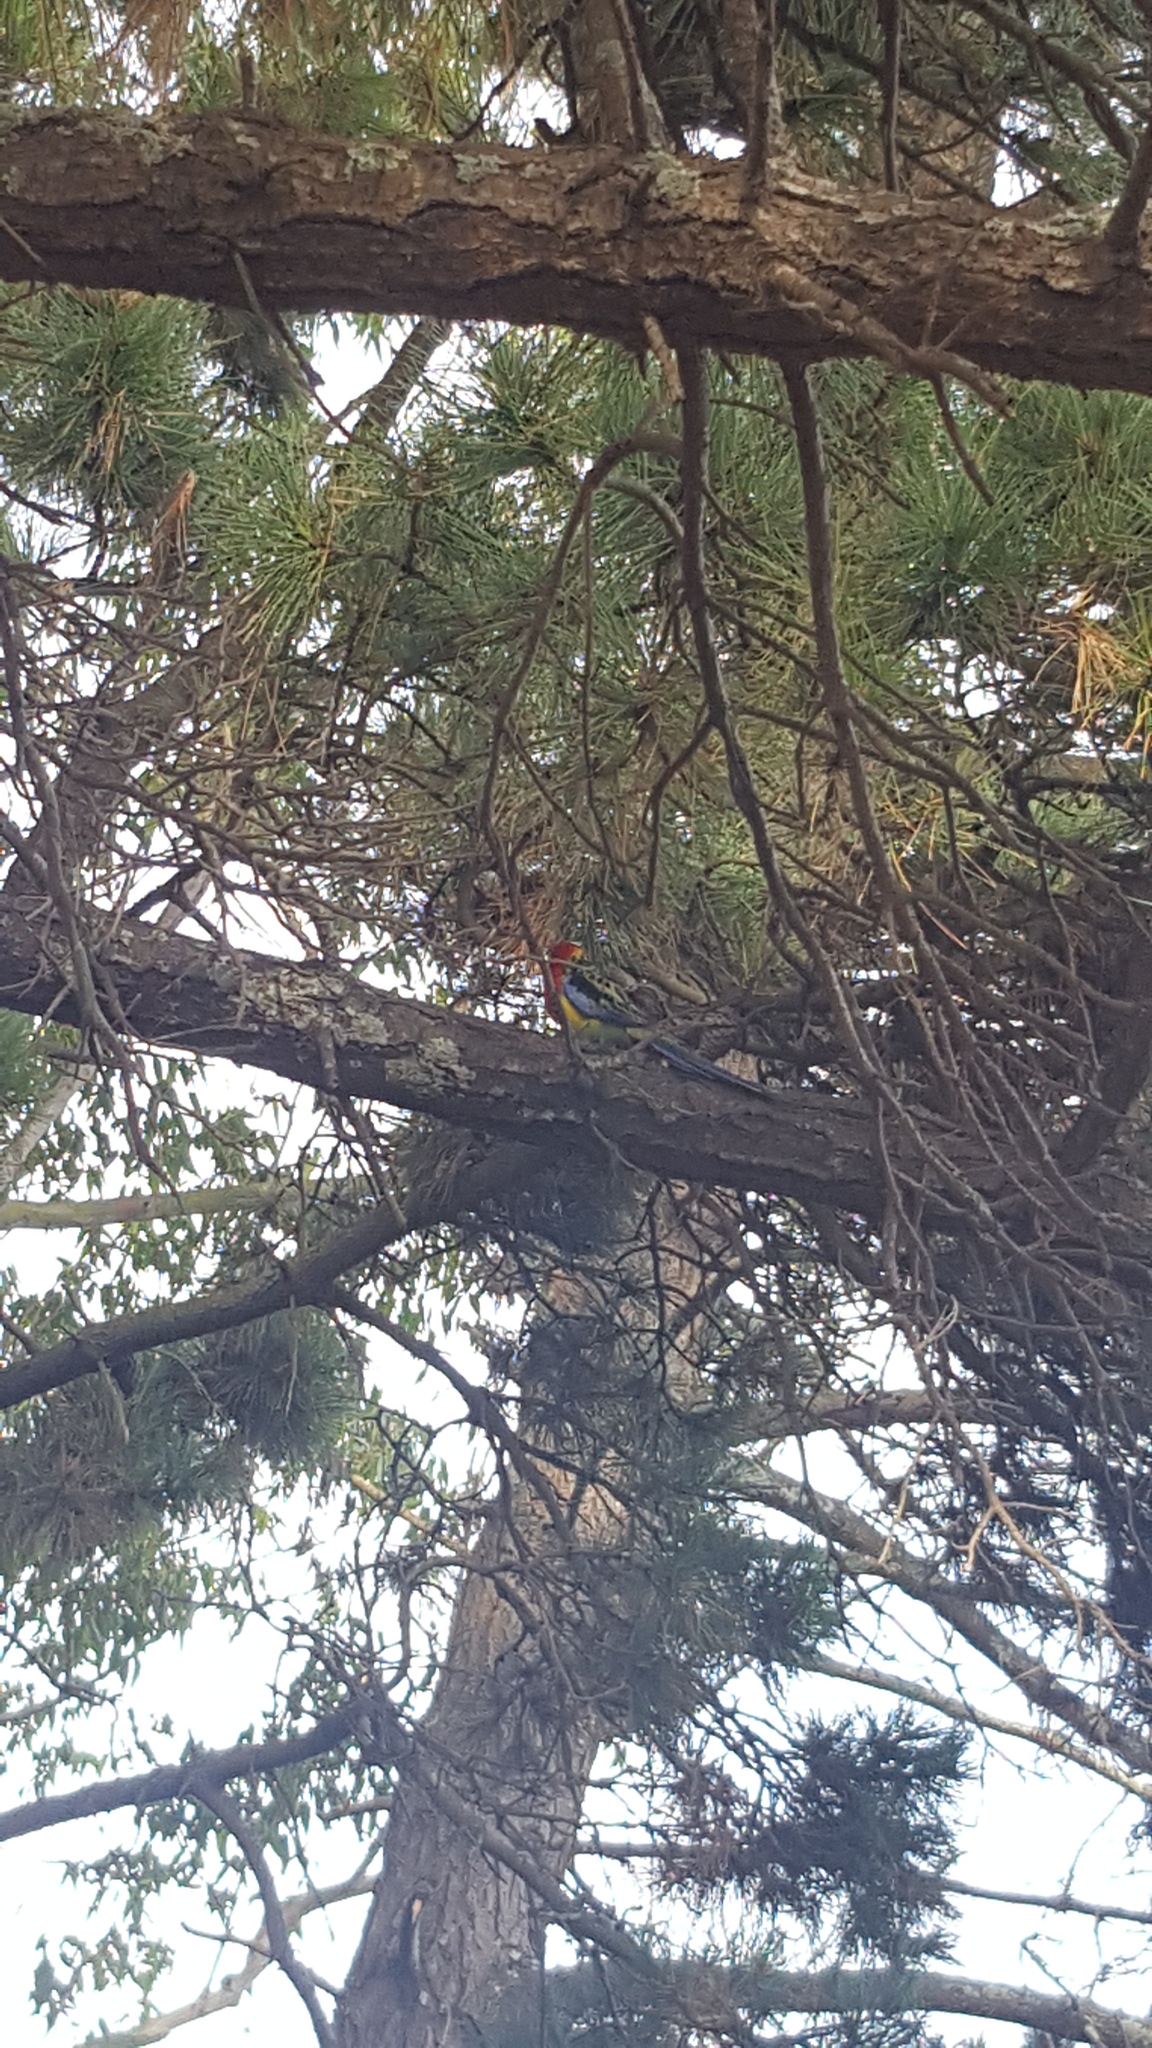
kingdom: Animalia
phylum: Chordata
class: Aves
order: Psittaciformes
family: Psittacidae
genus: Platycercus
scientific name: Platycercus eximius
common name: Eastern rosella
